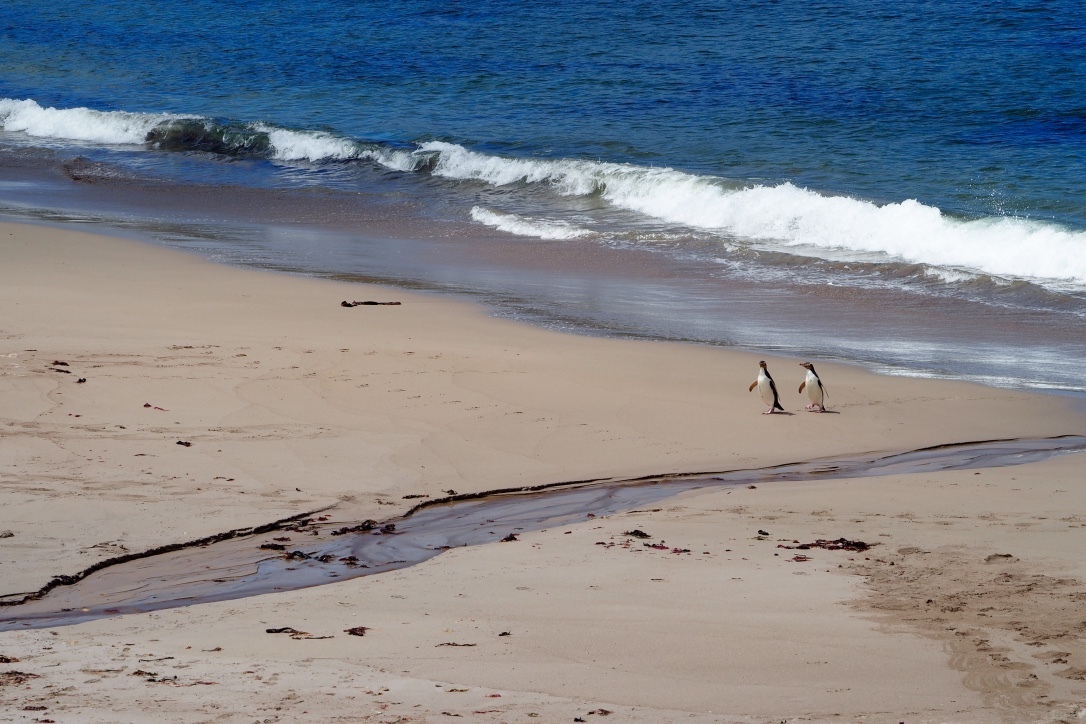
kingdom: Animalia
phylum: Chordata
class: Aves
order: Sphenisciformes
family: Spheniscidae
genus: Megadyptes
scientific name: Megadyptes antipodes
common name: Yellow-eyed penguin
